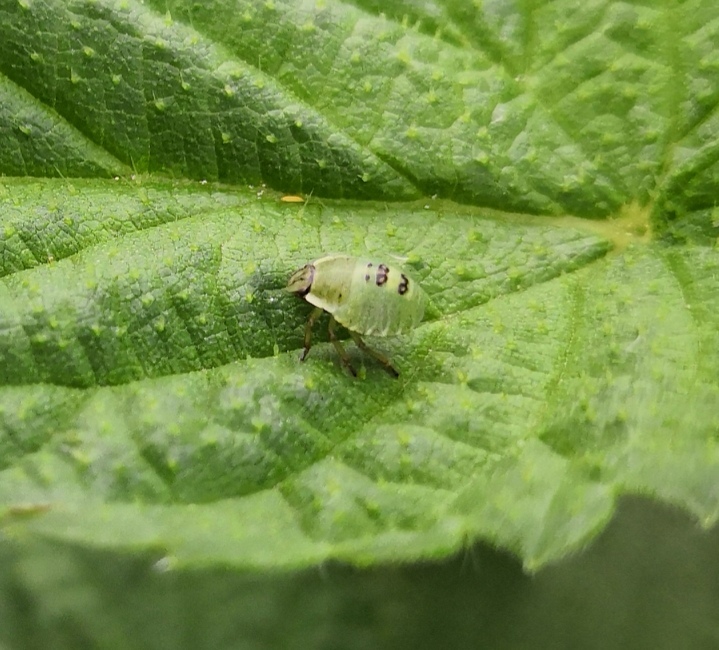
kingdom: Animalia
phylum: Arthropoda
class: Insecta
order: Hemiptera
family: Pentatomidae
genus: Palomena
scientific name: Palomena prasina
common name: Green shieldbug
